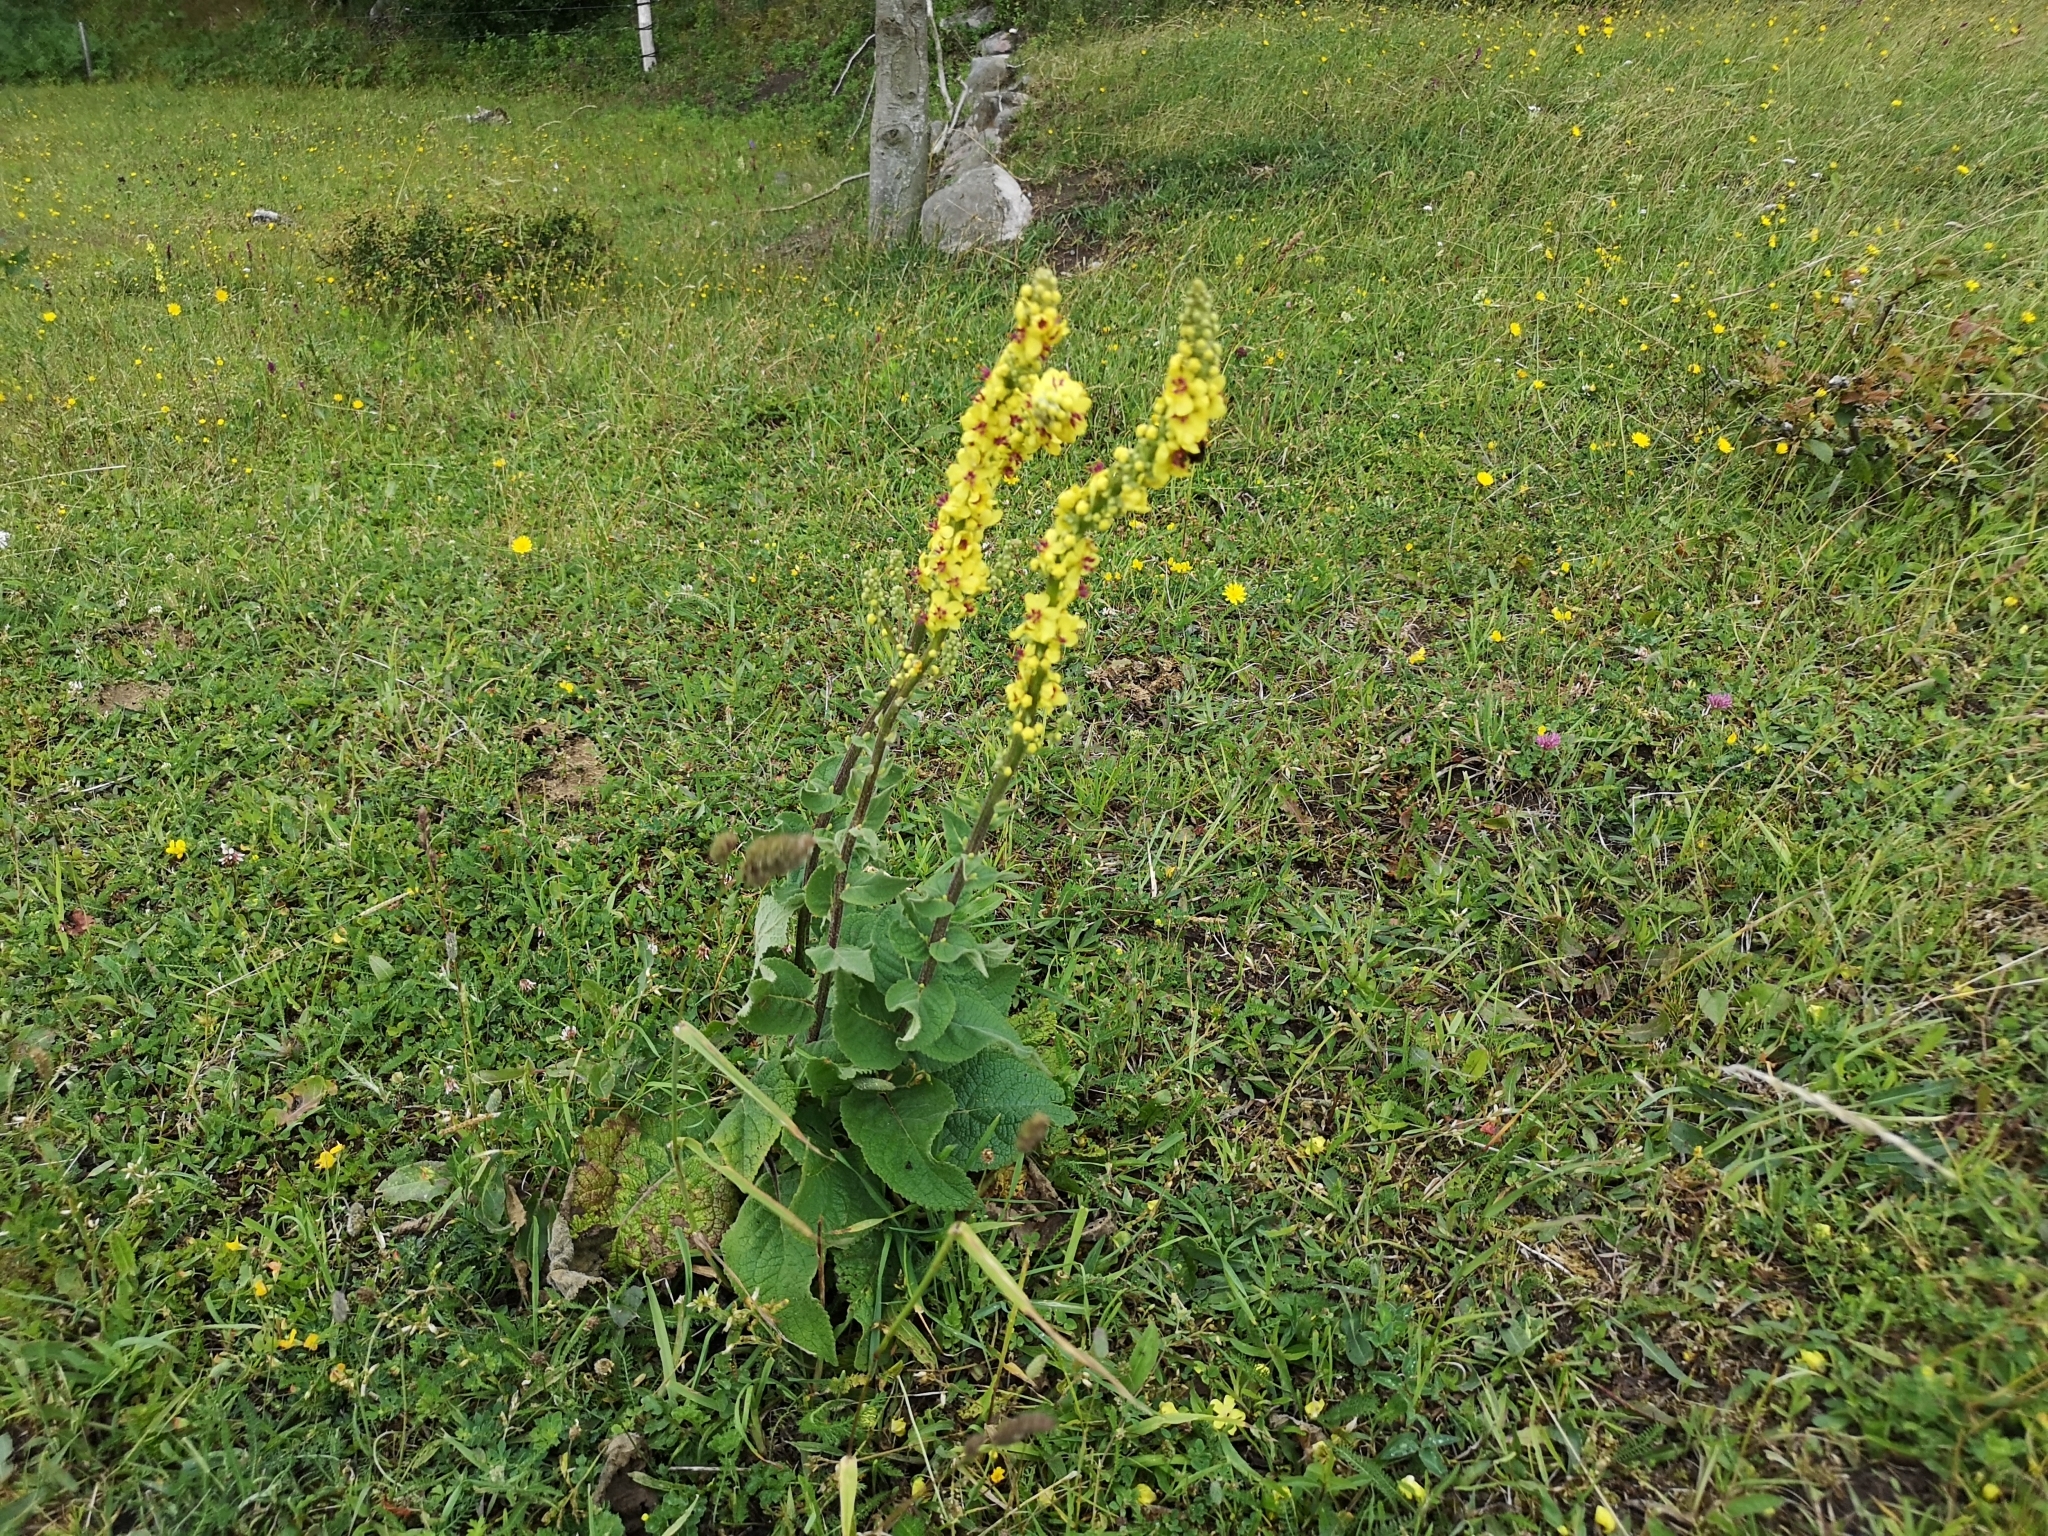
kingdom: Plantae
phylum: Tracheophyta
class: Magnoliopsida
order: Lamiales
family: Scrophulariaceae
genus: Verbascum
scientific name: Verbascum nigrum
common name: Dark mullein
